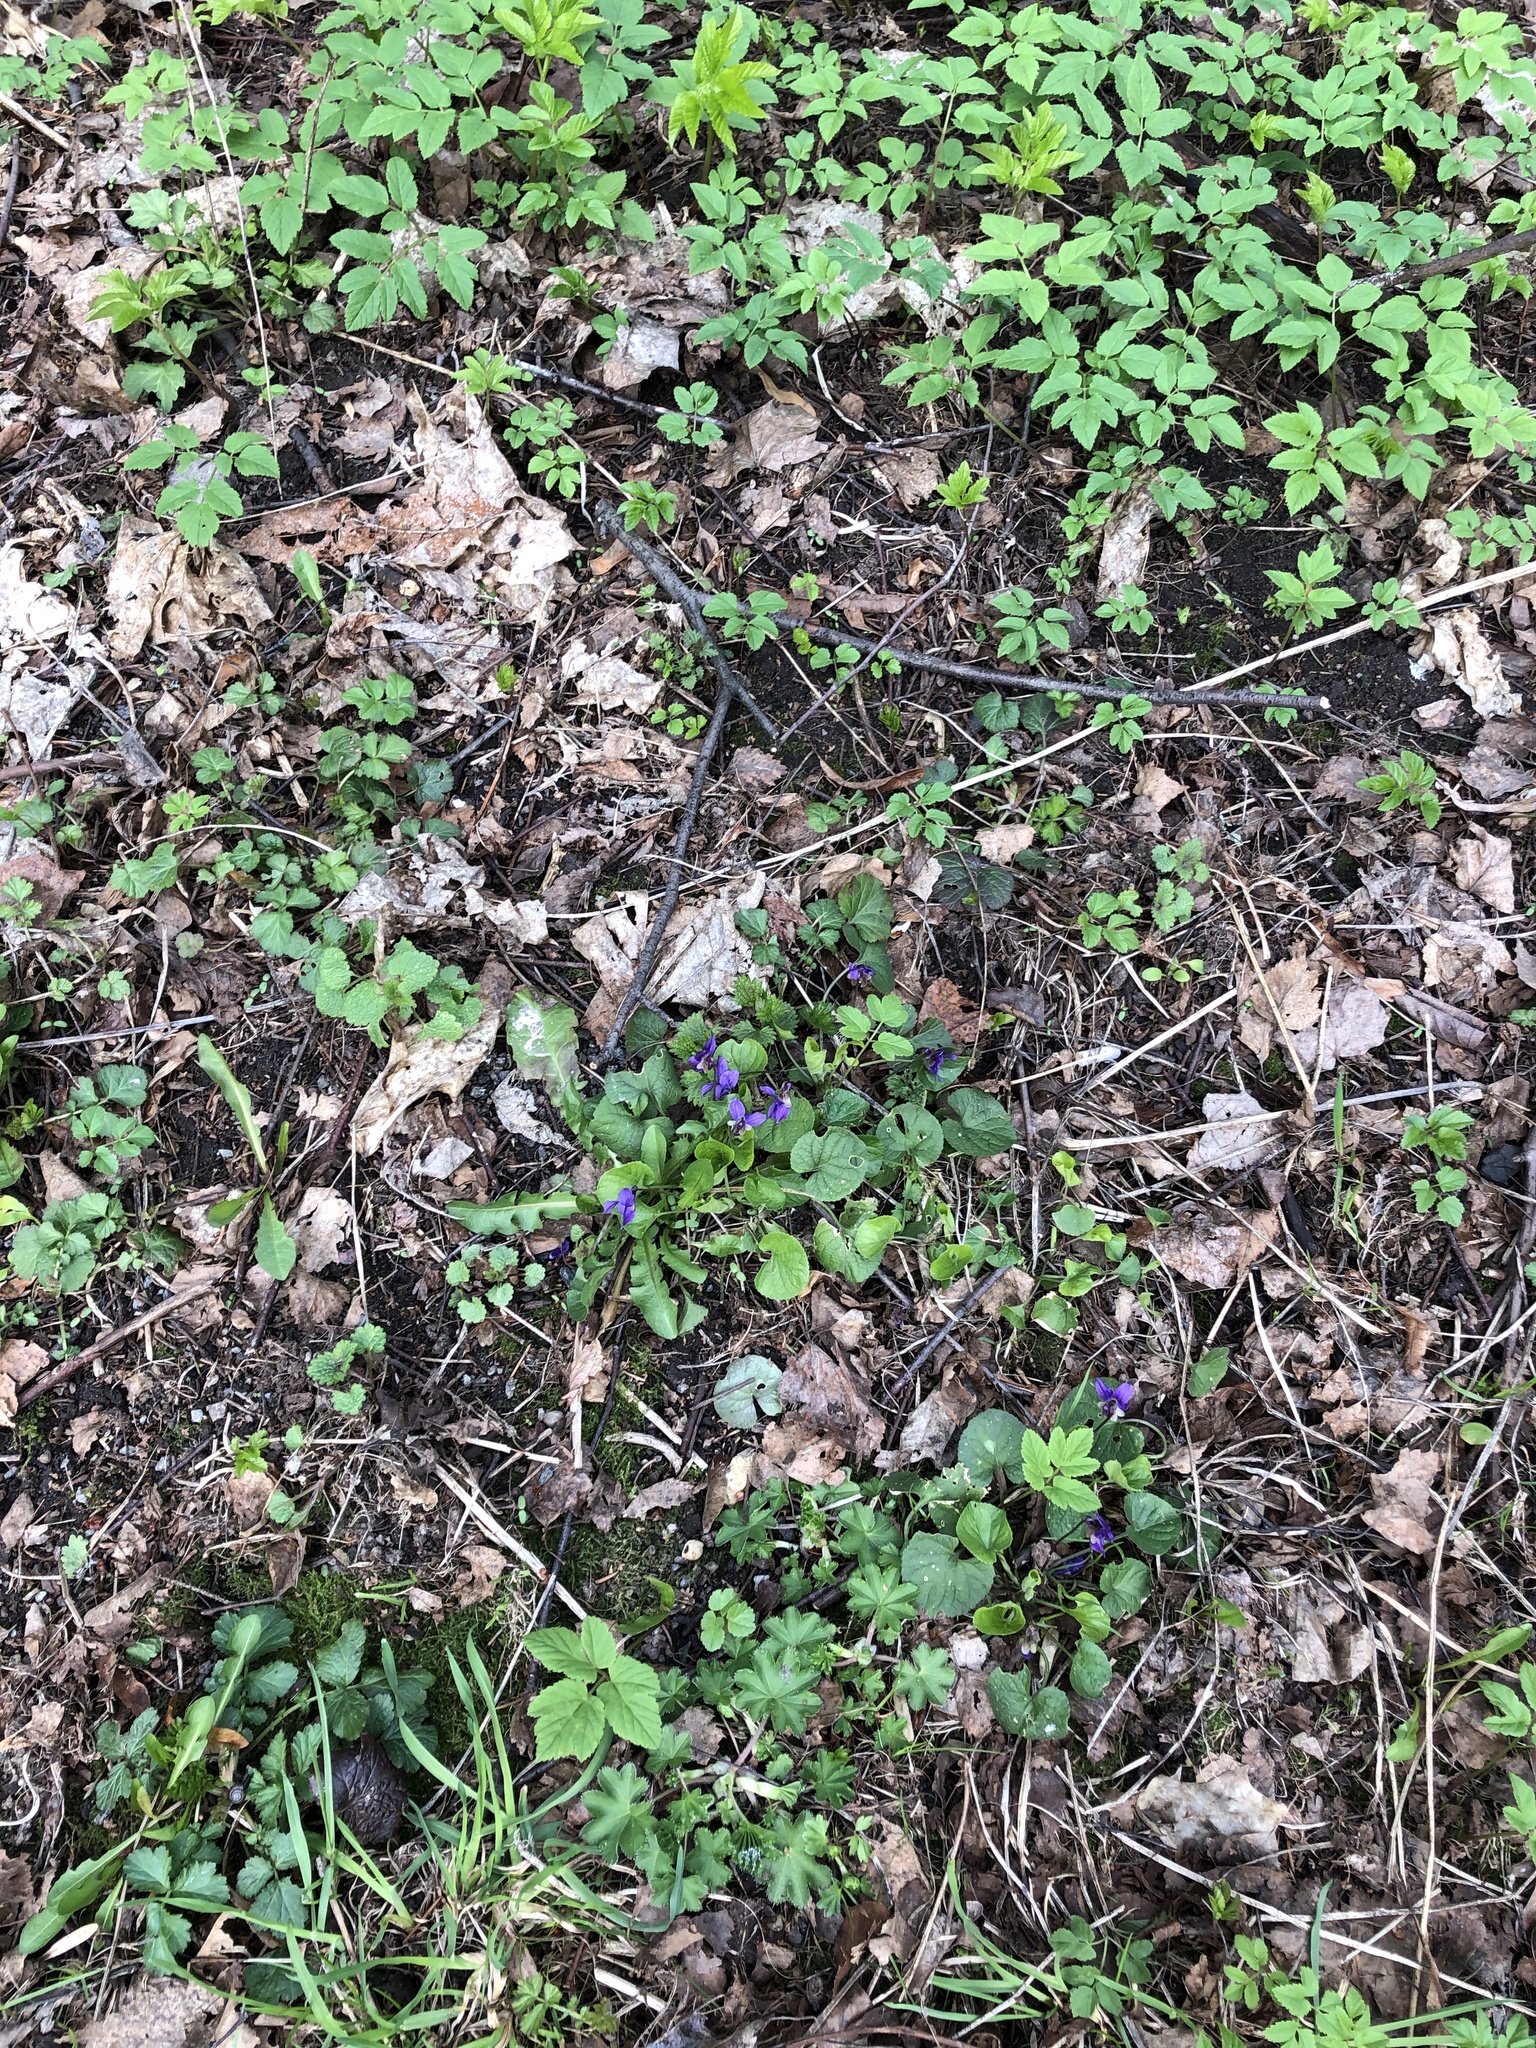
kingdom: Plantae
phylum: Tracheophyta
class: Magnoliopsida
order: Malpighiales
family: Violaceae
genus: Viola
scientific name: Viola odorata
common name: Sweet violet
